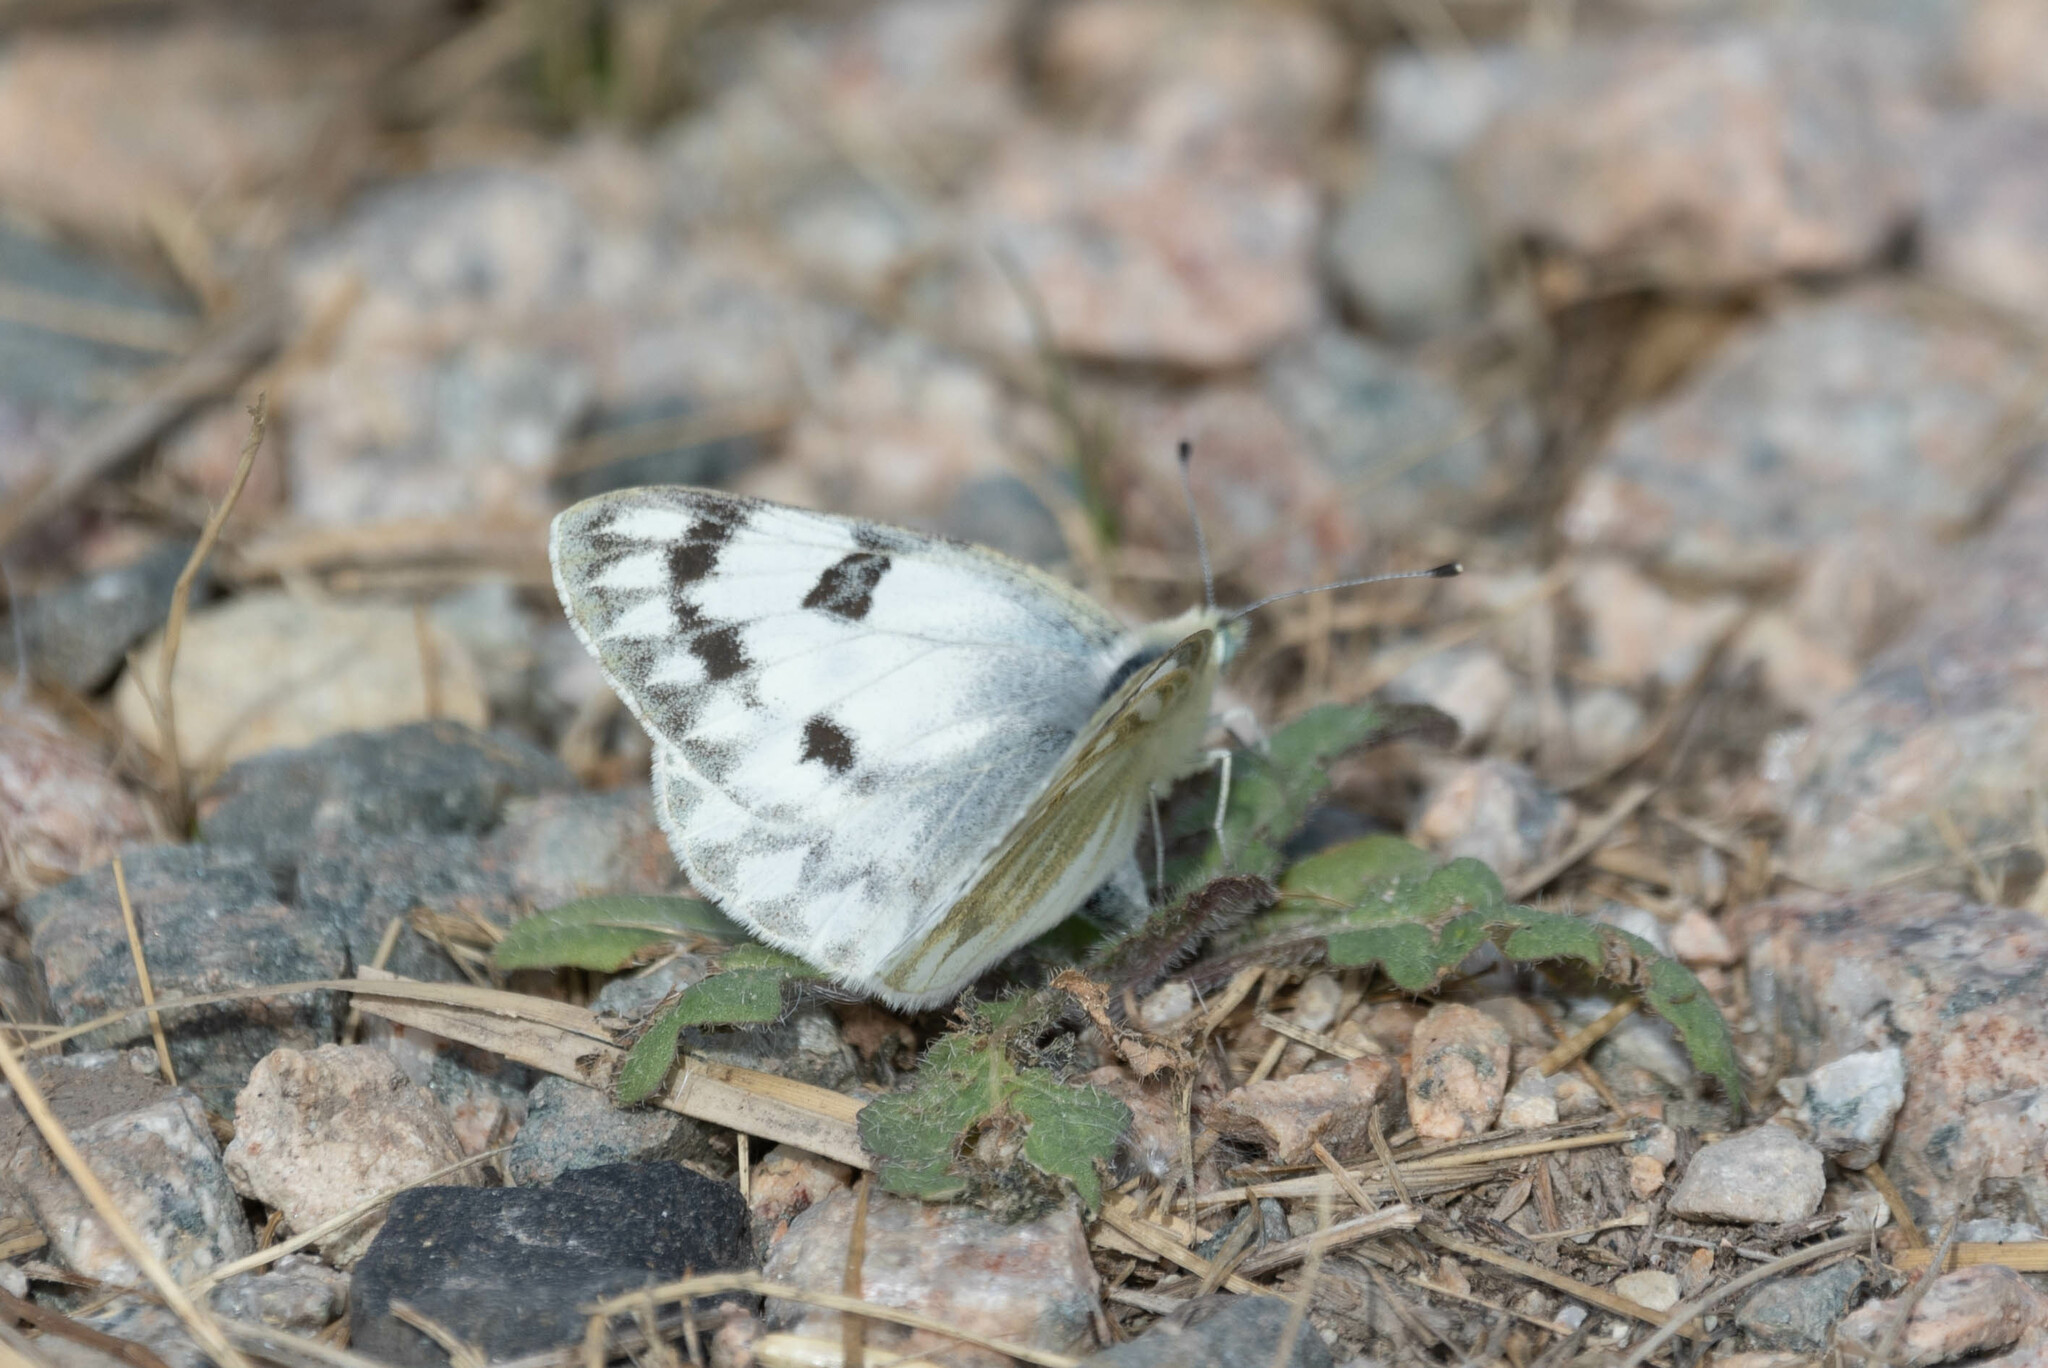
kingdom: Animalia
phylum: Arthropoda
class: Insecta
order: Lepidoptera
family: Pieridae
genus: Pontia
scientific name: Pontia occidentalis
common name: Western white
